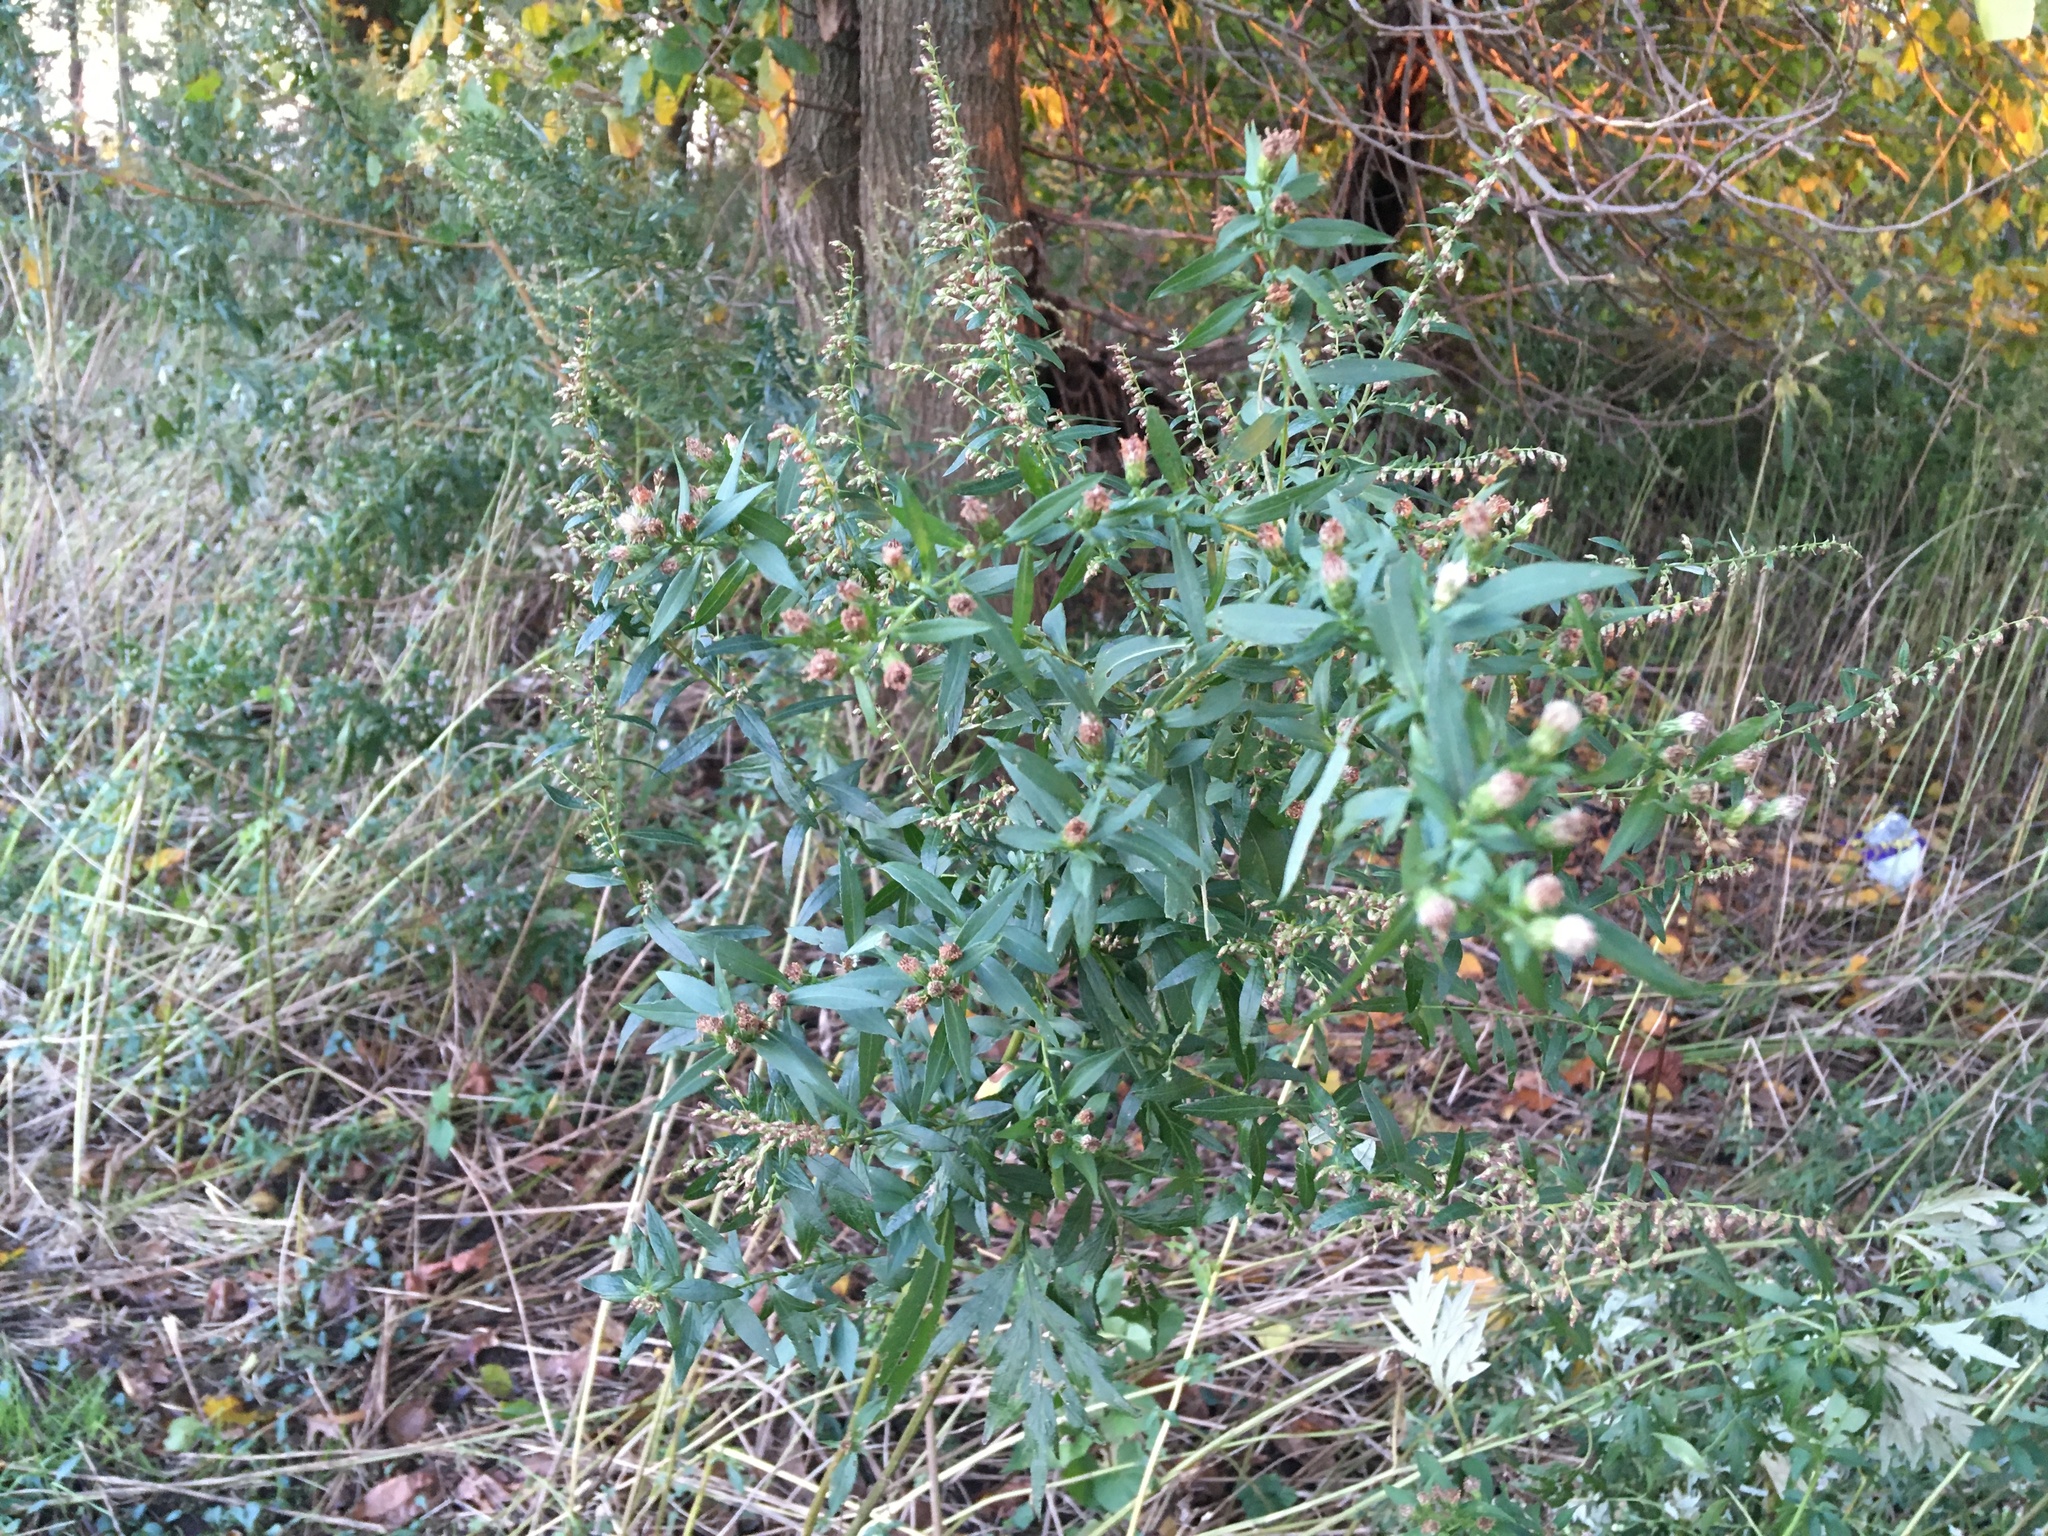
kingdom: Plantae
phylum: Tracheophyta
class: Magnoliopsida
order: Asterales
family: Asteraceae
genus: Artemisia
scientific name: Artemisia vulgaris
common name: Mugwort
